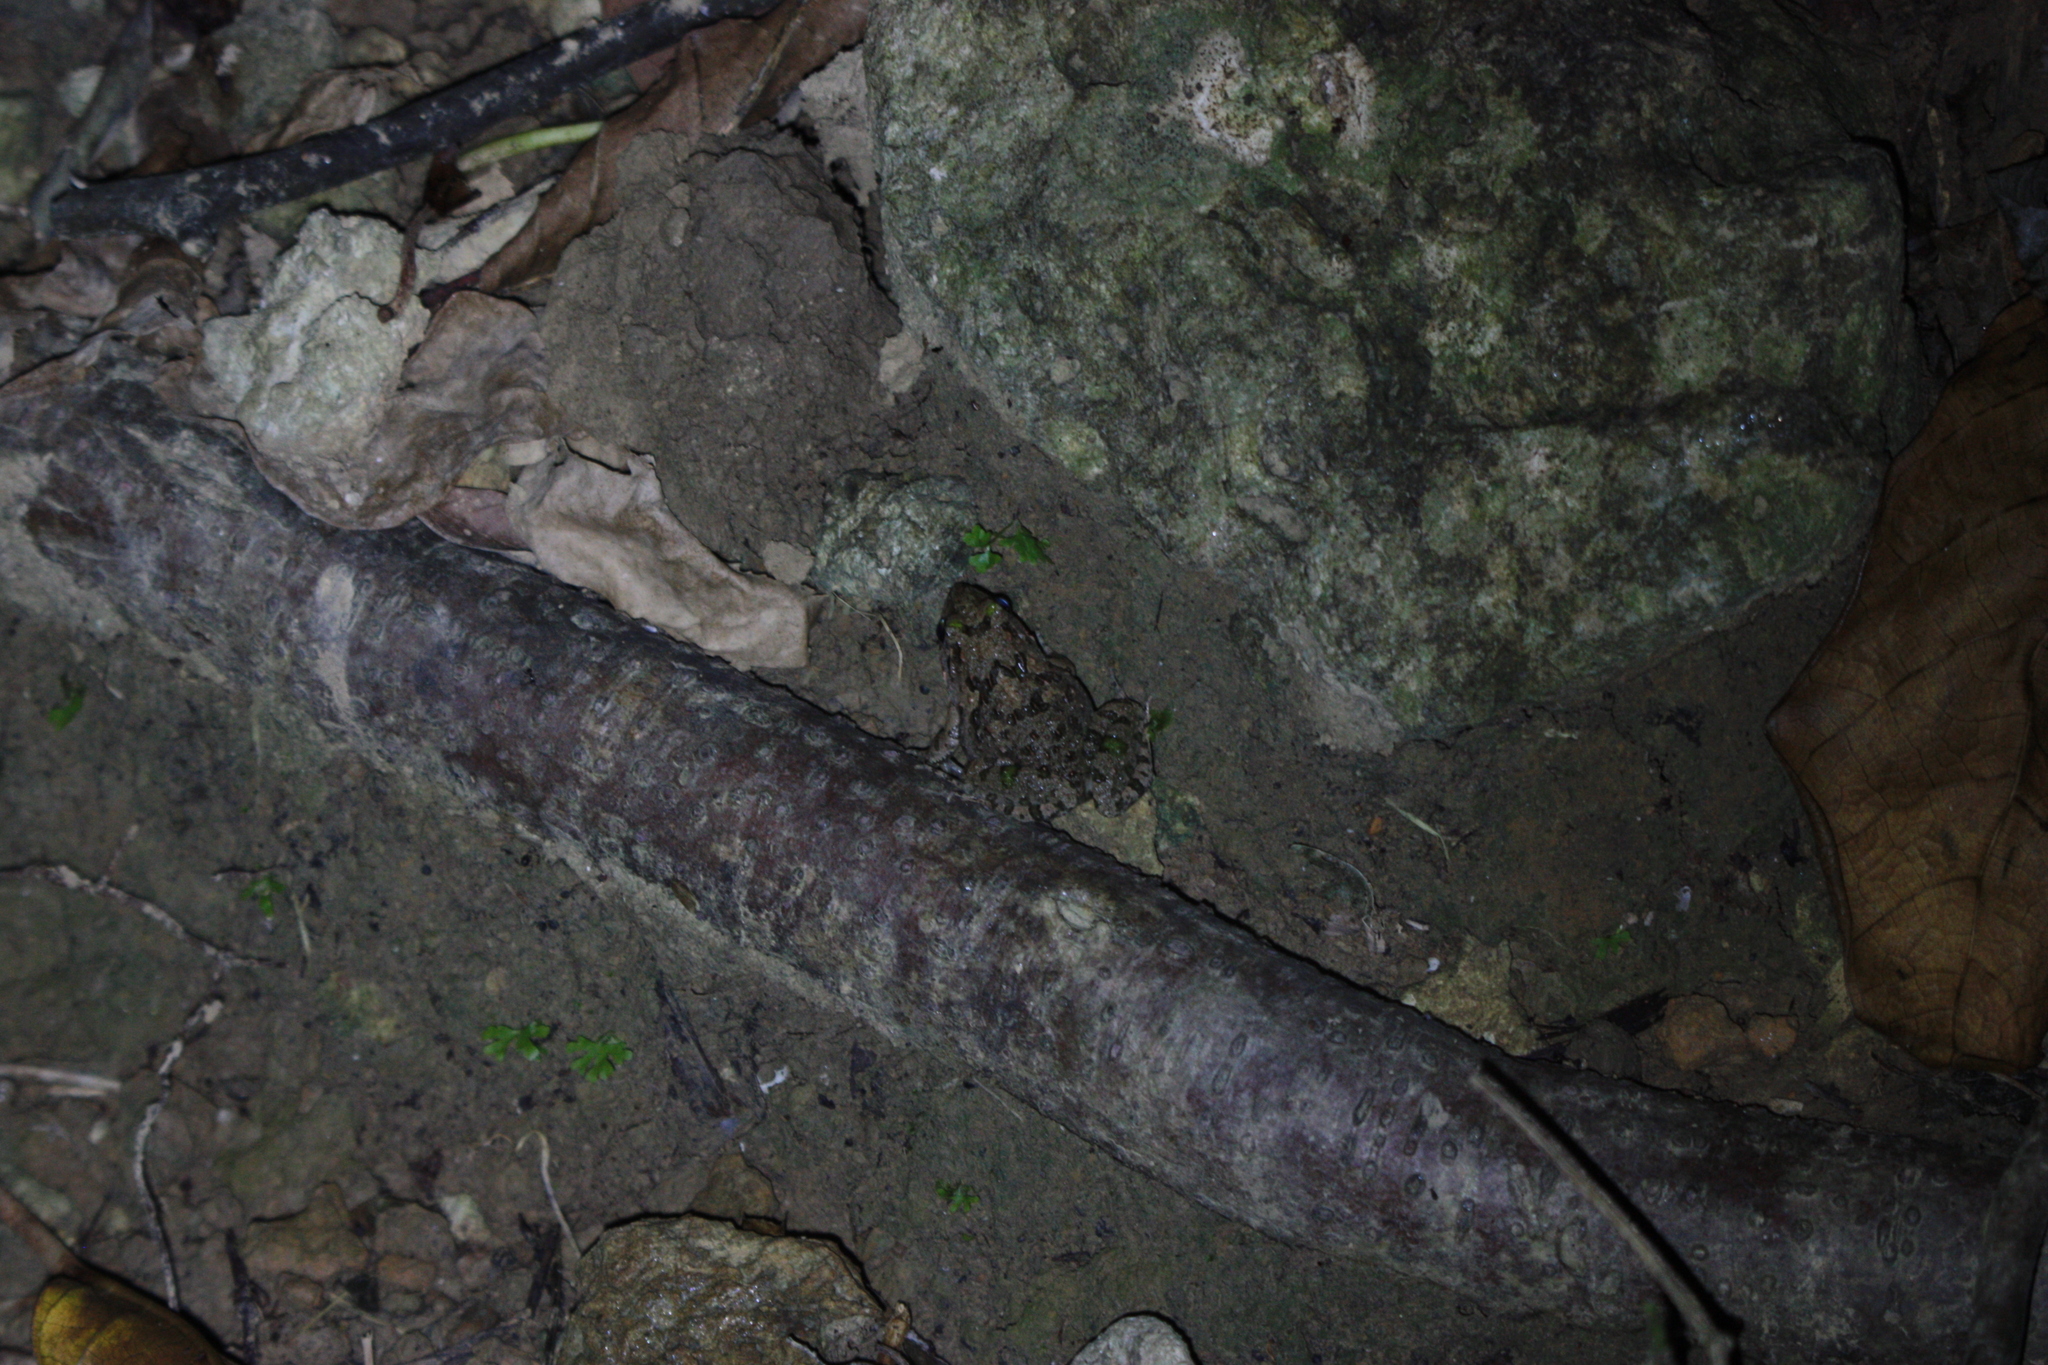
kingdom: Animalia
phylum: Chordata
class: Amphibia
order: Anura
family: Dicroglossidae
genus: Fejervarya
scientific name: Fejervarya limnocharis
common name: Asian grass frog/common pond frog/field frog/grass frog/indian rice frog
